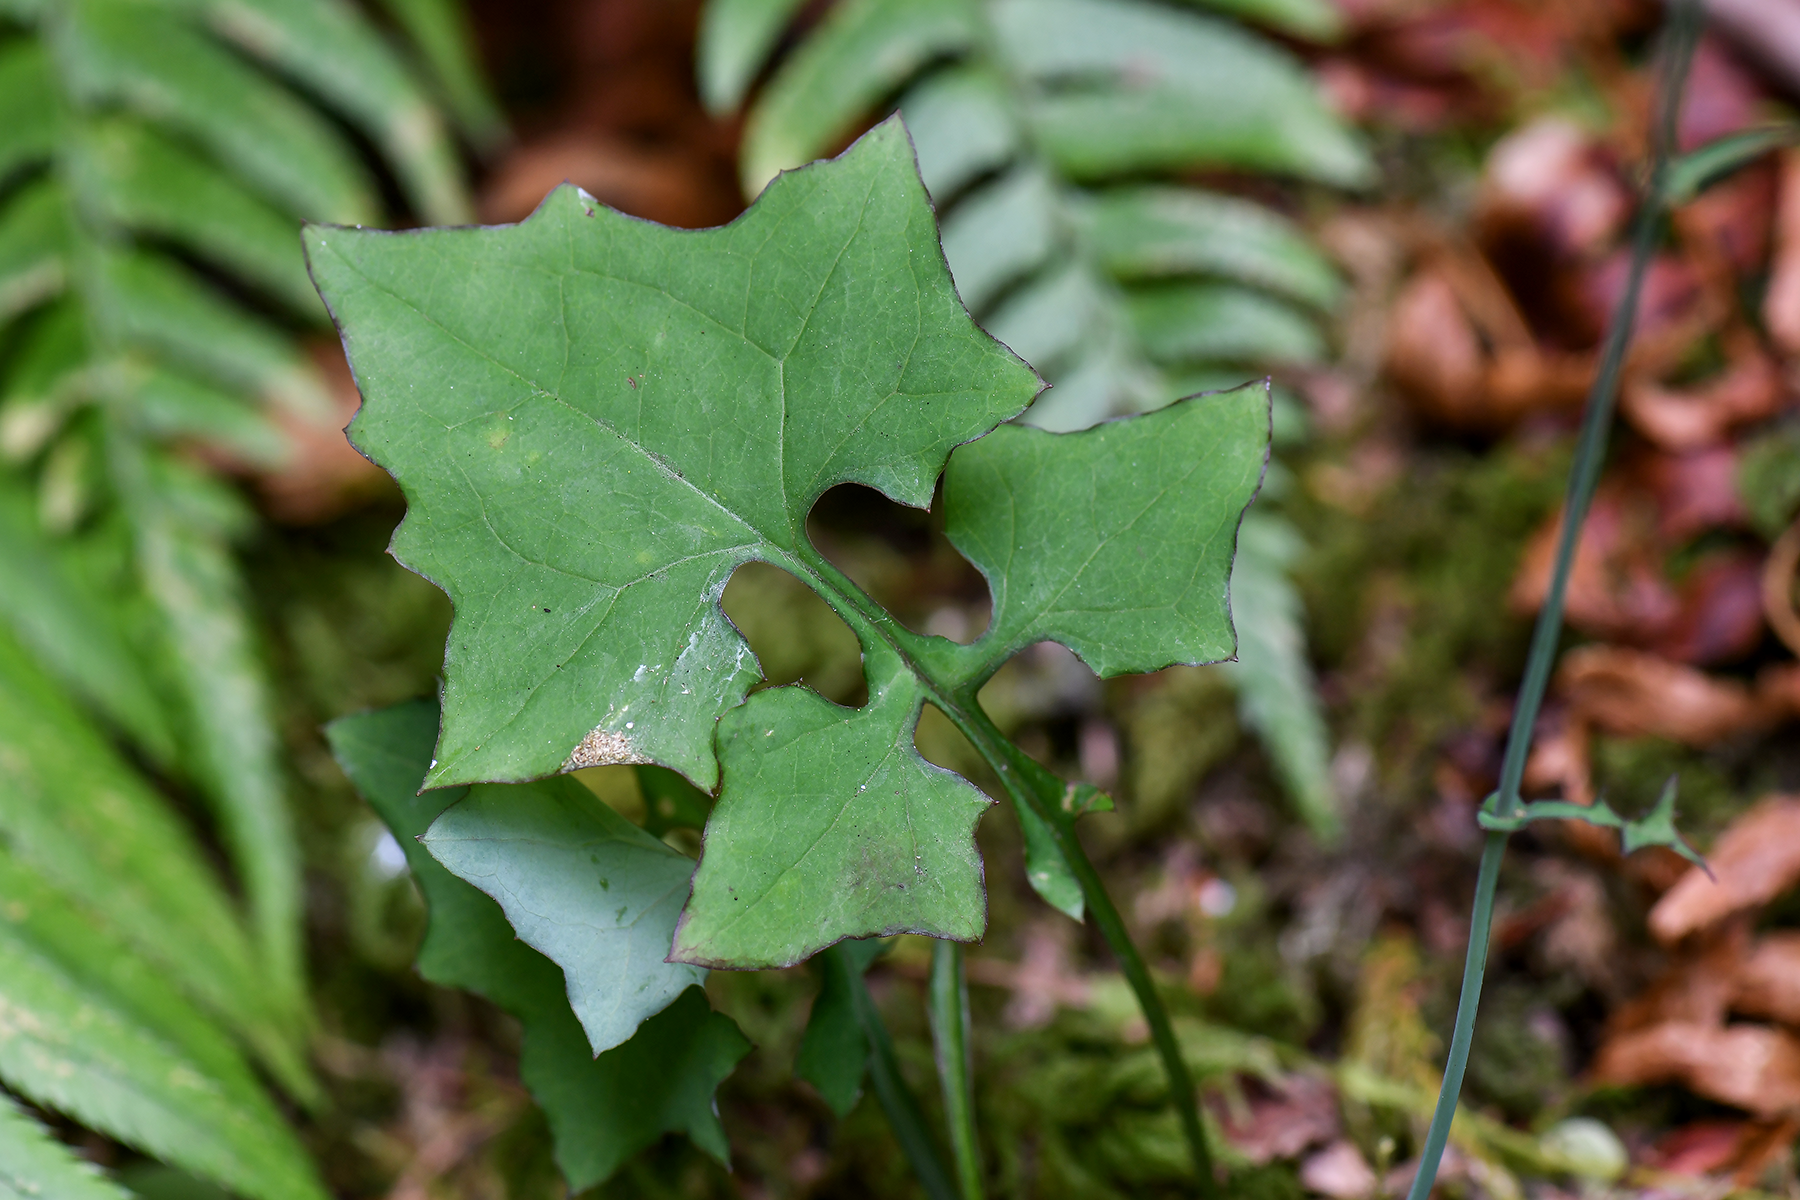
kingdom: Plantae
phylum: Tracheophyta
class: Magnoliopsida
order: Asterales
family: Asteraceae
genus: Mycelis
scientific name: Mycelis muralis
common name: Wall lettuce
